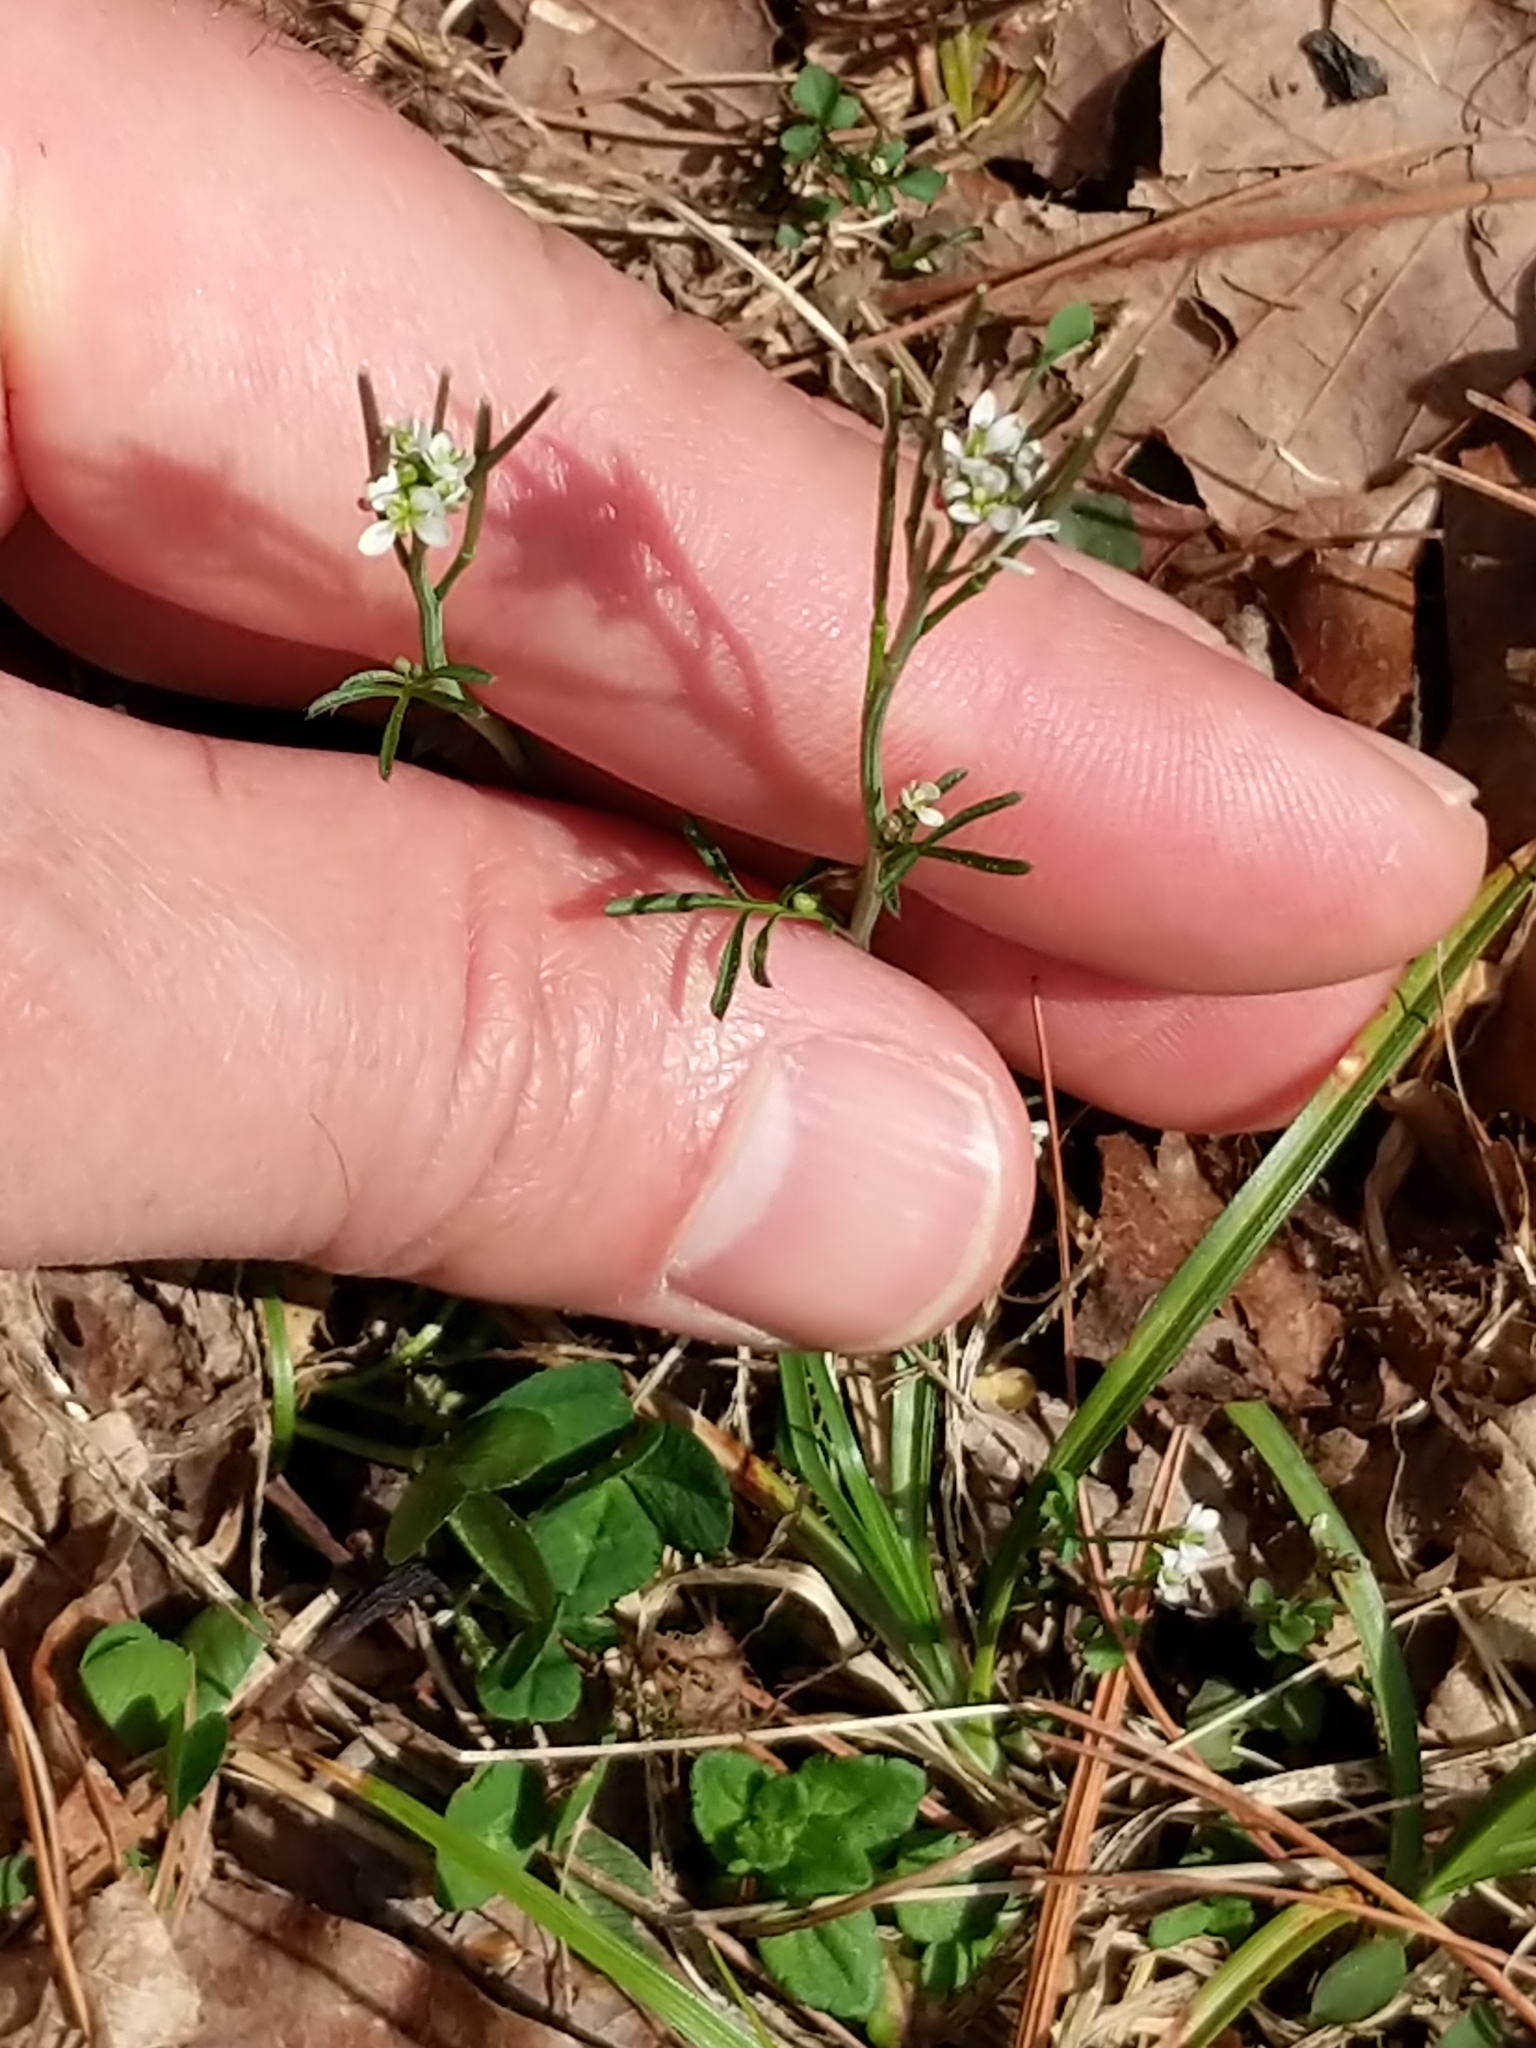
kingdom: Plantae
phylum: Tracheophyta
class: Magnoliopsida
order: Brassicales
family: Brassicaceae
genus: Cardamine
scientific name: Cardamine hirsuta
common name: Hairy bittercress
